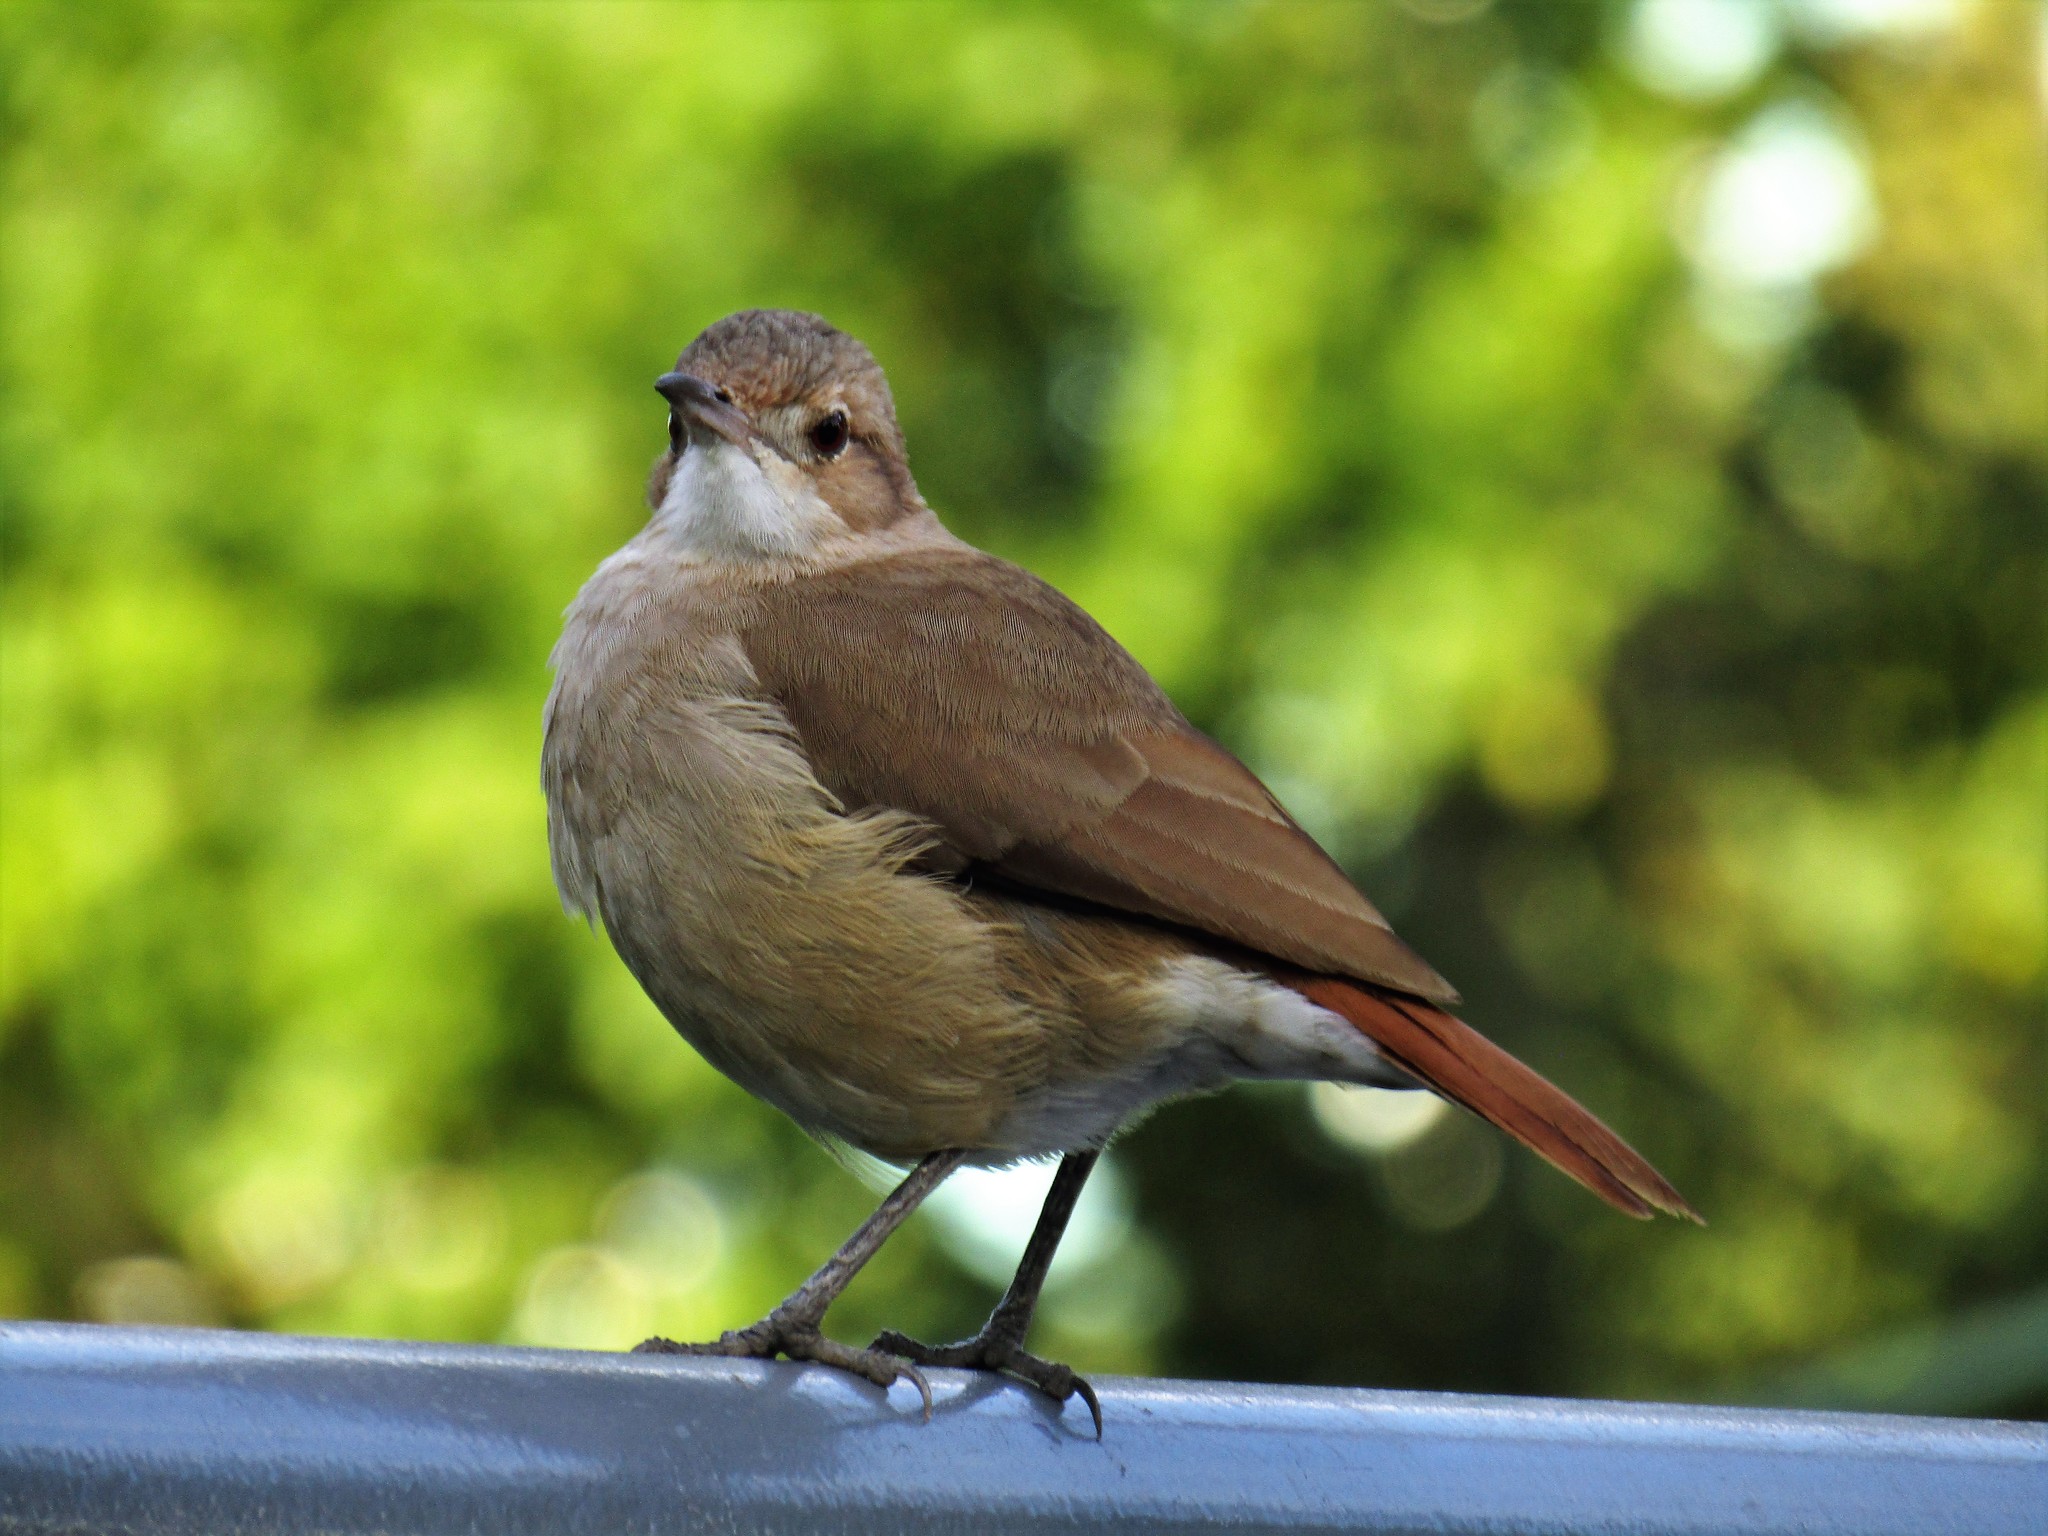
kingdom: Animalia
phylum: Chordata
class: Aves
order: Passeriformes
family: Furnariidae
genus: Furnarius
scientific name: Furnarius rufus
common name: Rufous hornero
